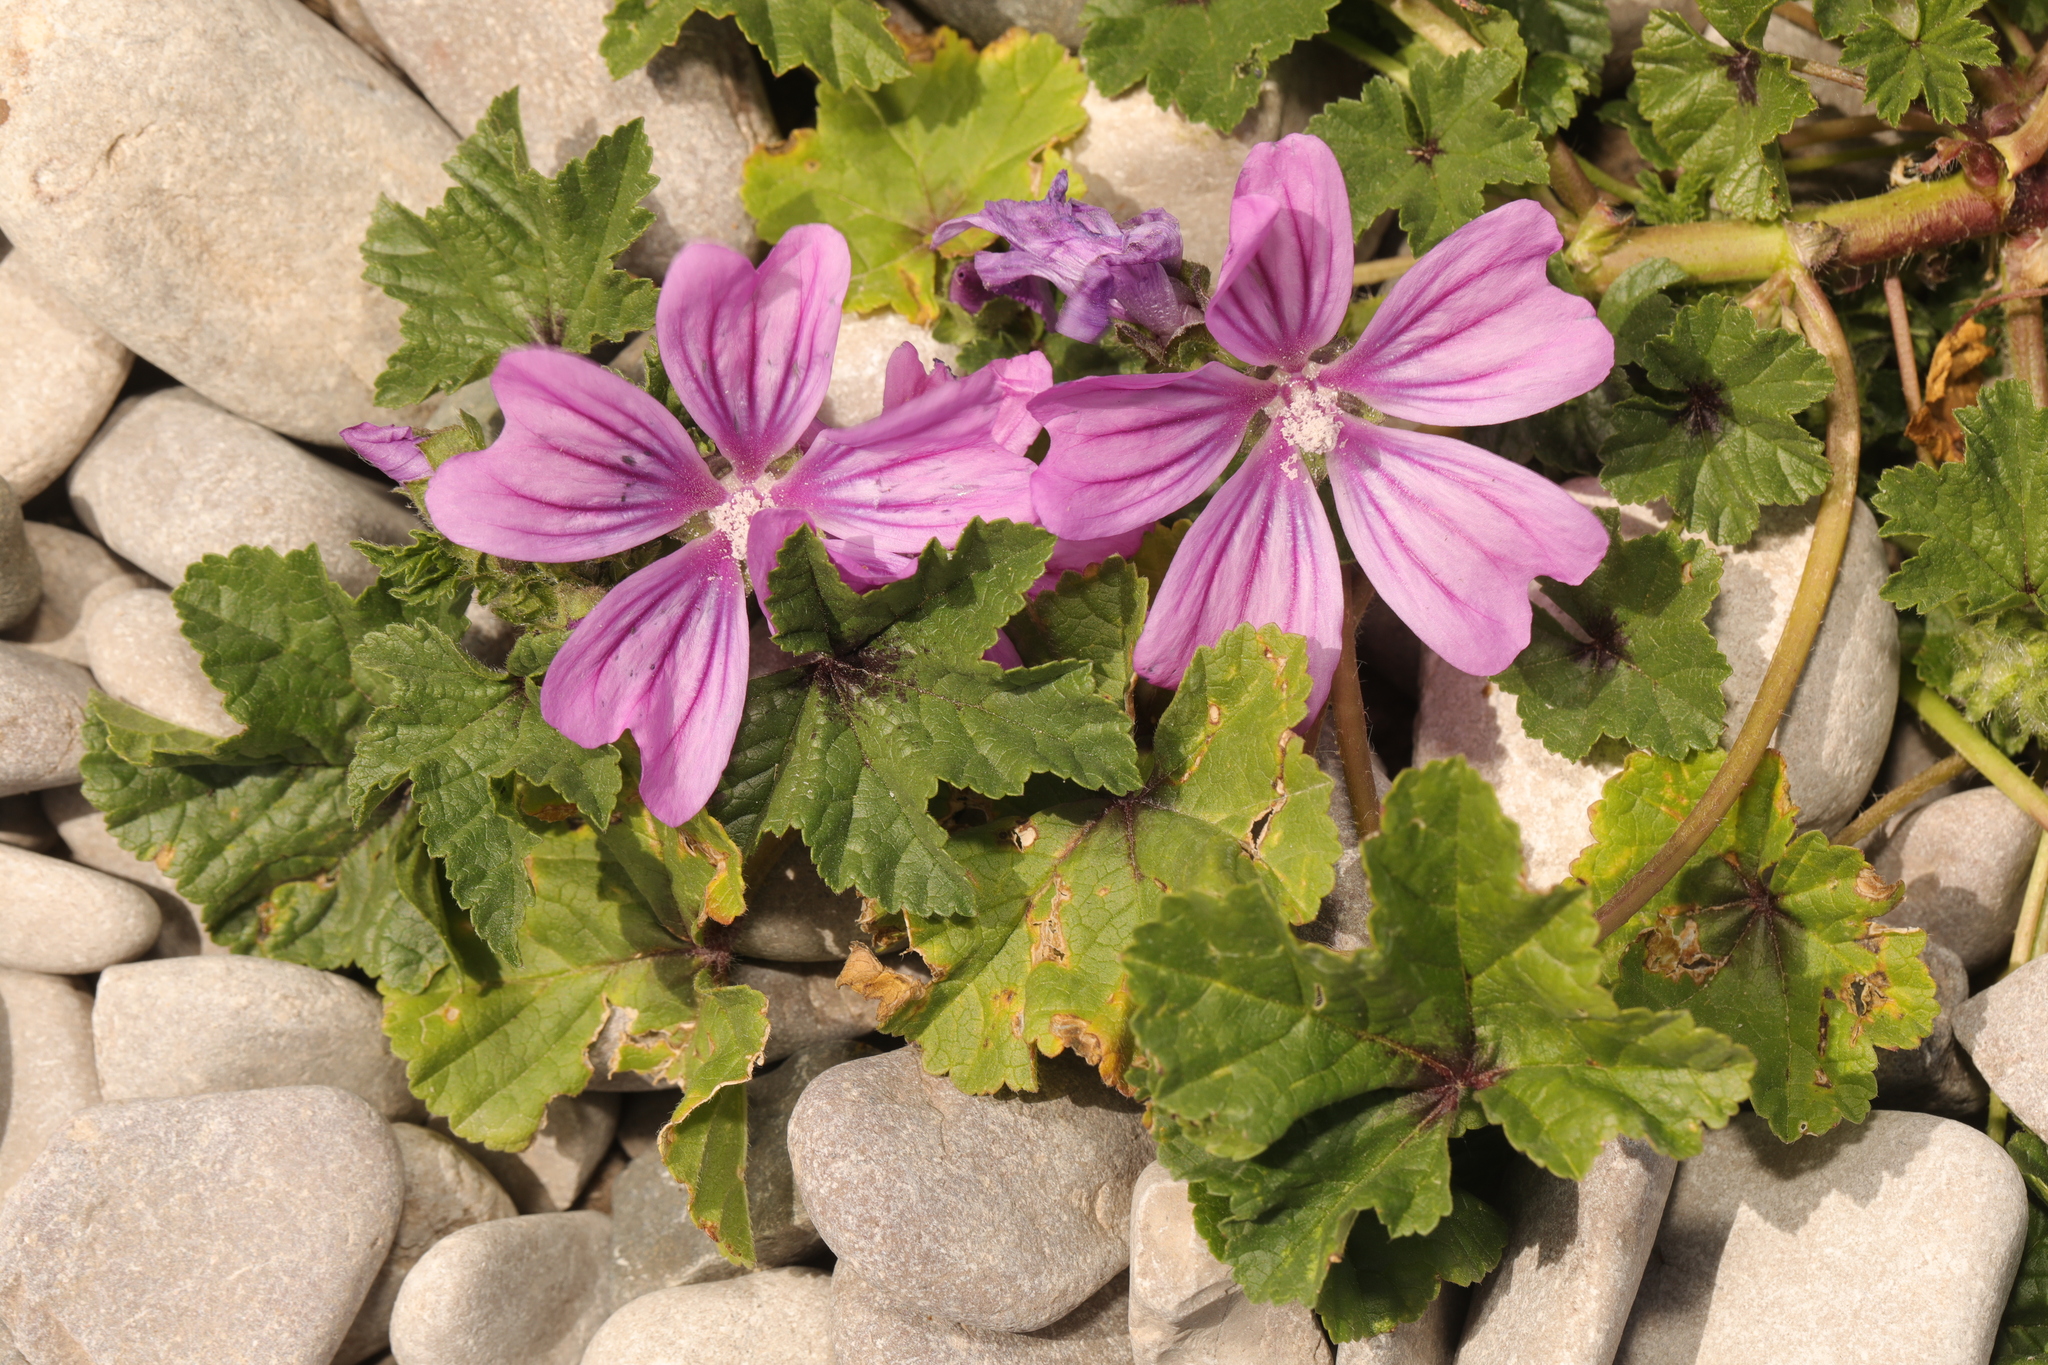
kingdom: Plantae
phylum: Tracheophyta
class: Magnoliopsida
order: Malvales
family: Malvaceae
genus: Malva
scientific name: Malva sylvestris
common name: Common mallow
